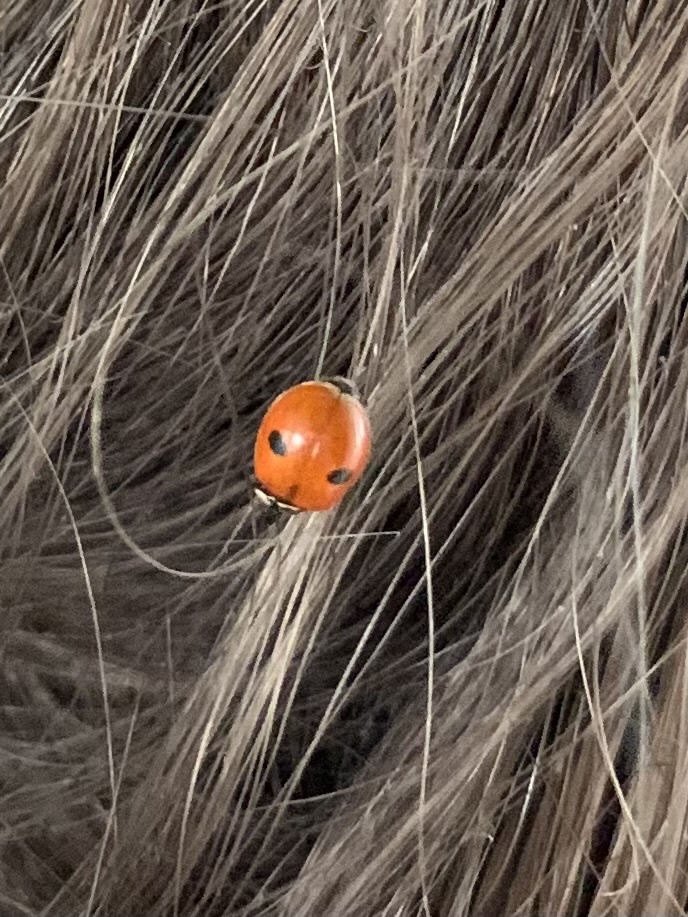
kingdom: Animalia
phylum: Arthropoda
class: Insecta
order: Coleoptera
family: Coccinellidae
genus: Adalia
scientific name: Adalia bipunctata
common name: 2-spot ladybird
